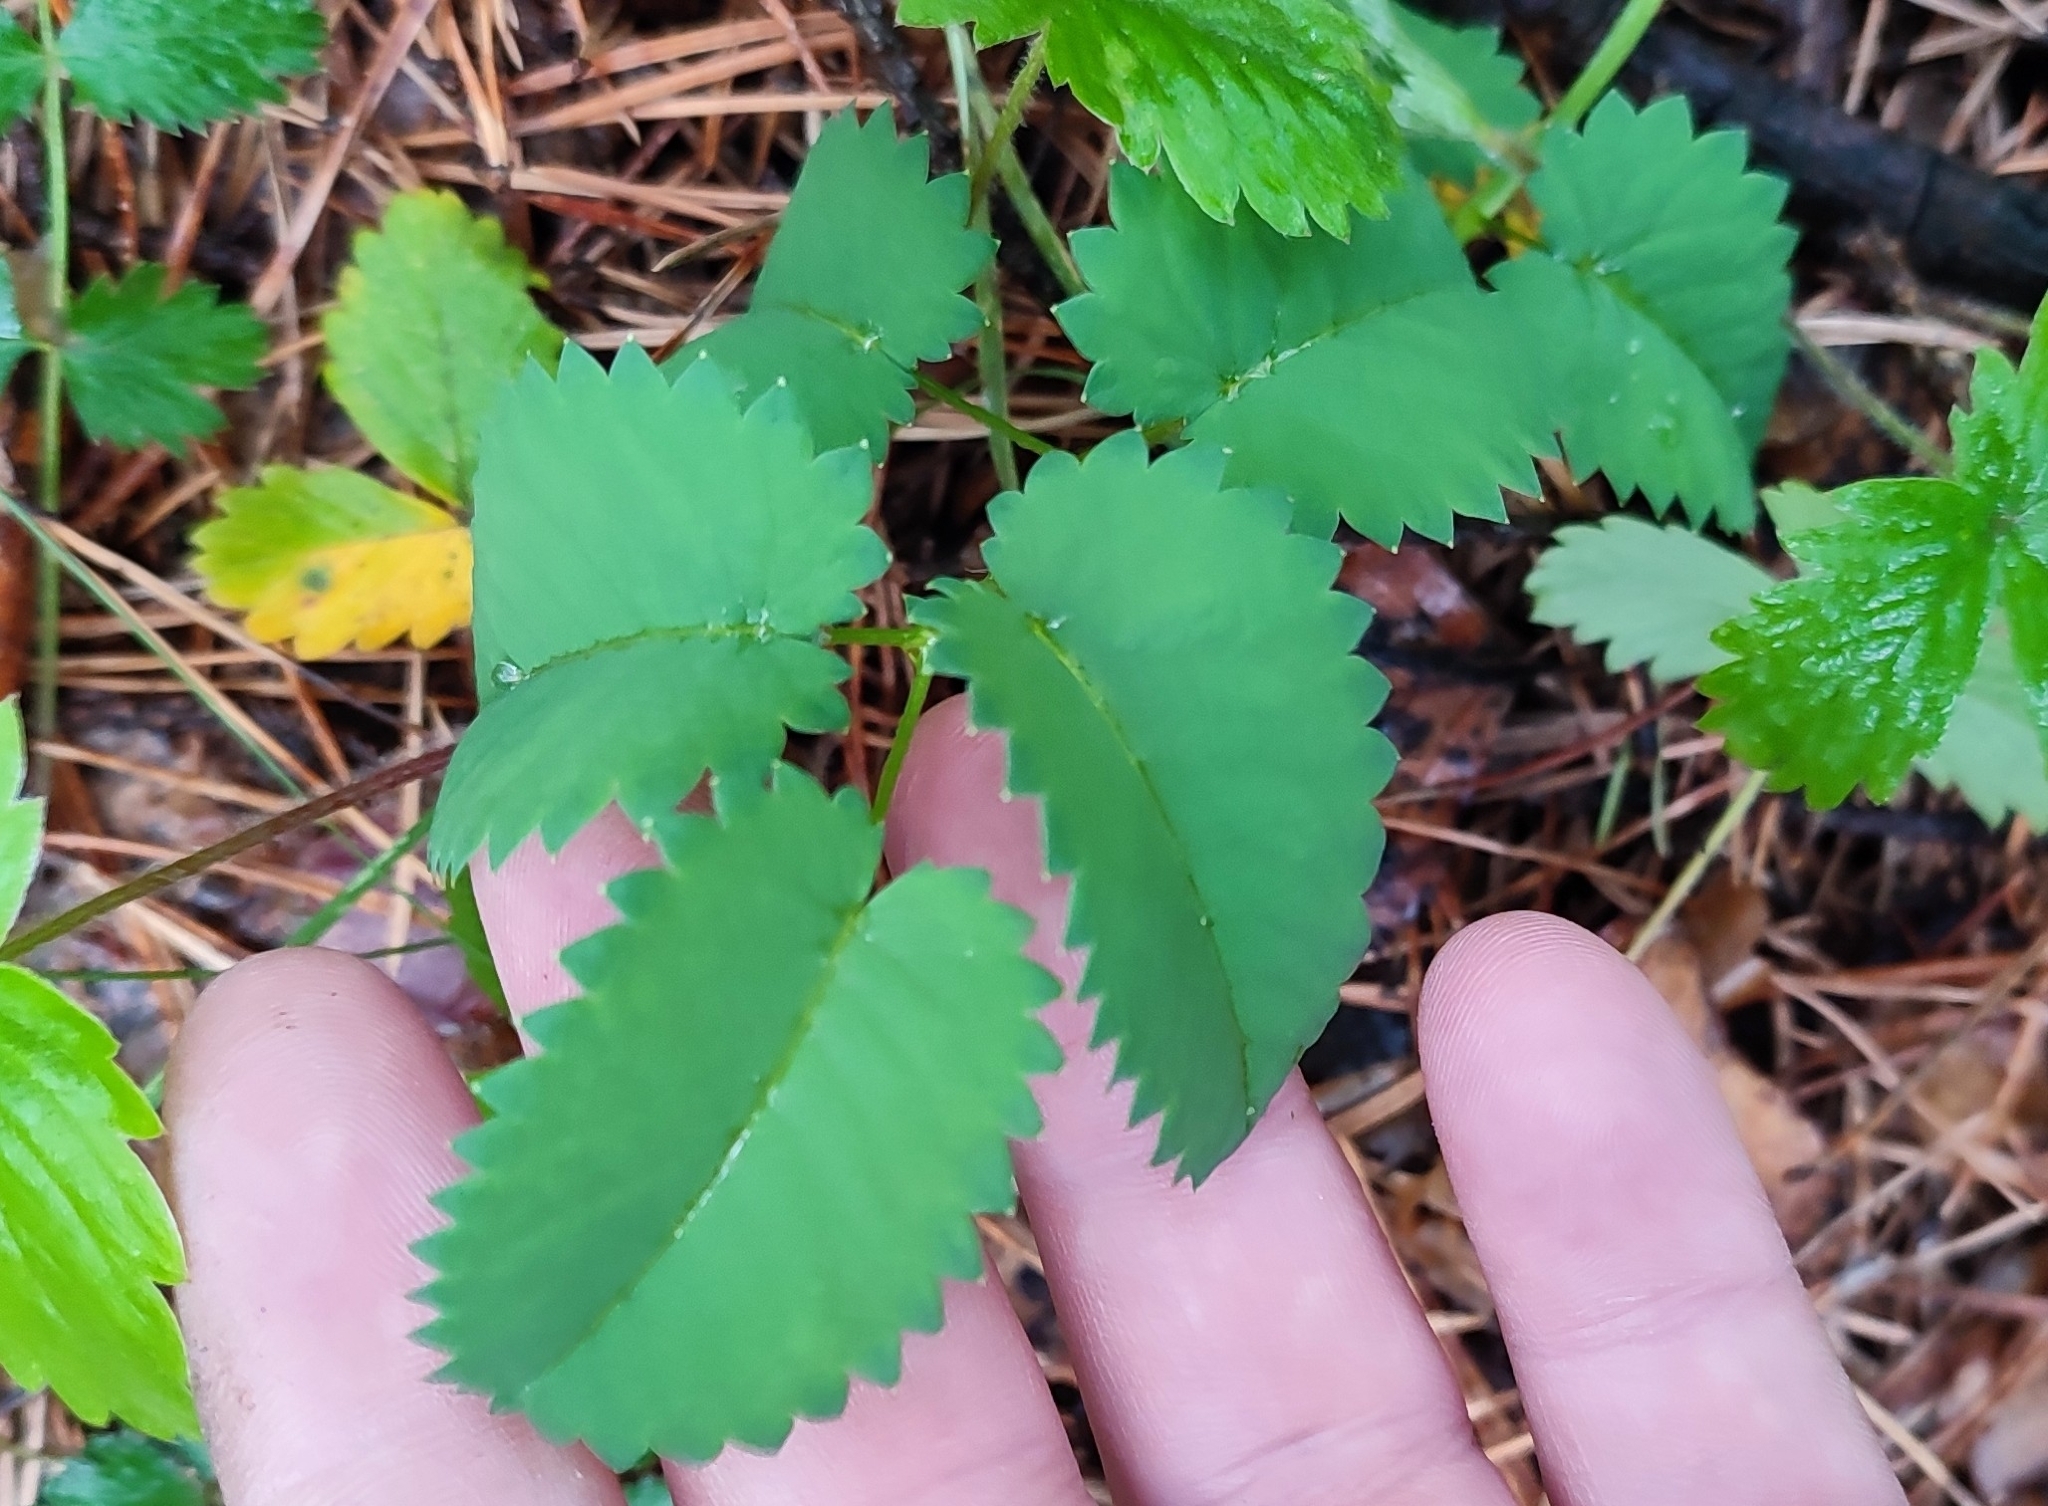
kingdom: Plantae
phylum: Tracheophyta
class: Magnoliopsida
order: Rosales
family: Rosaceae
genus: Sanguisorba
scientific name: Sanguisorba officinalis
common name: Great burnet
